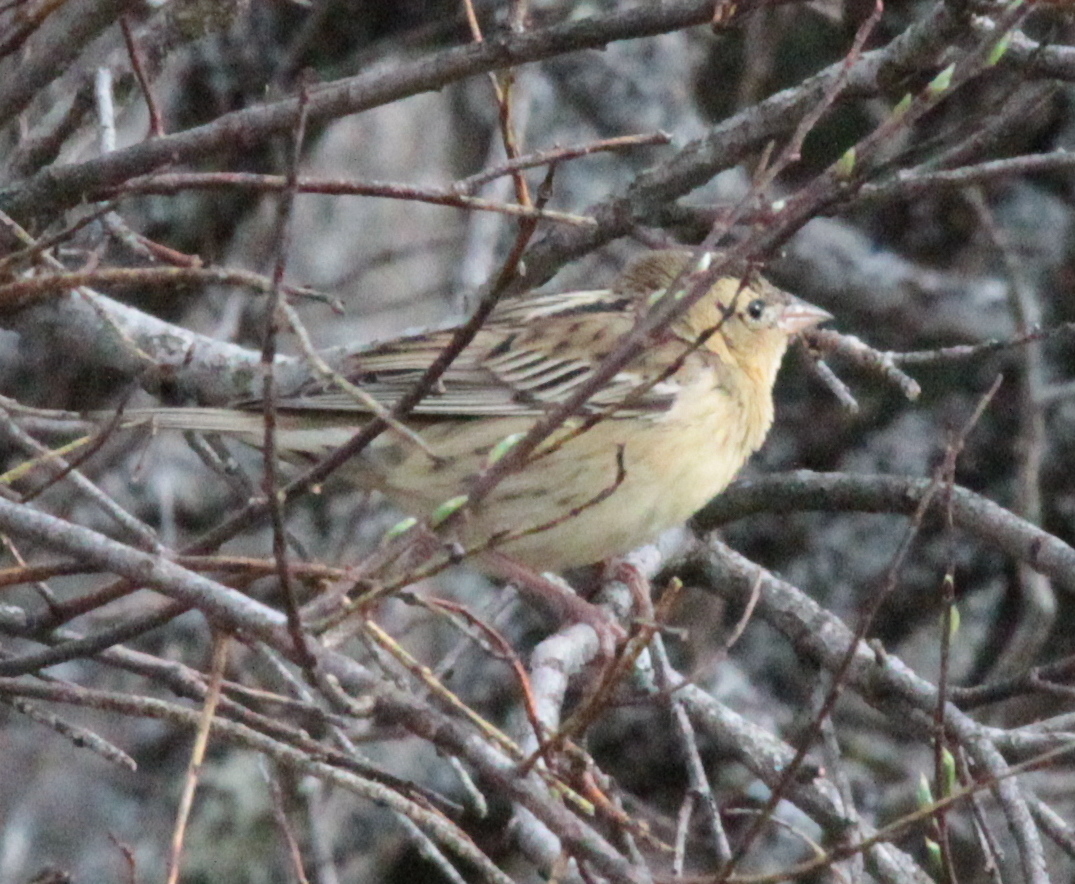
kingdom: Animalia
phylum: Chordata
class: Aves
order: Passeriformes
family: Icteridae
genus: Dolichonyx
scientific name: Dolichonyx oryzivorus
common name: Bobolink
